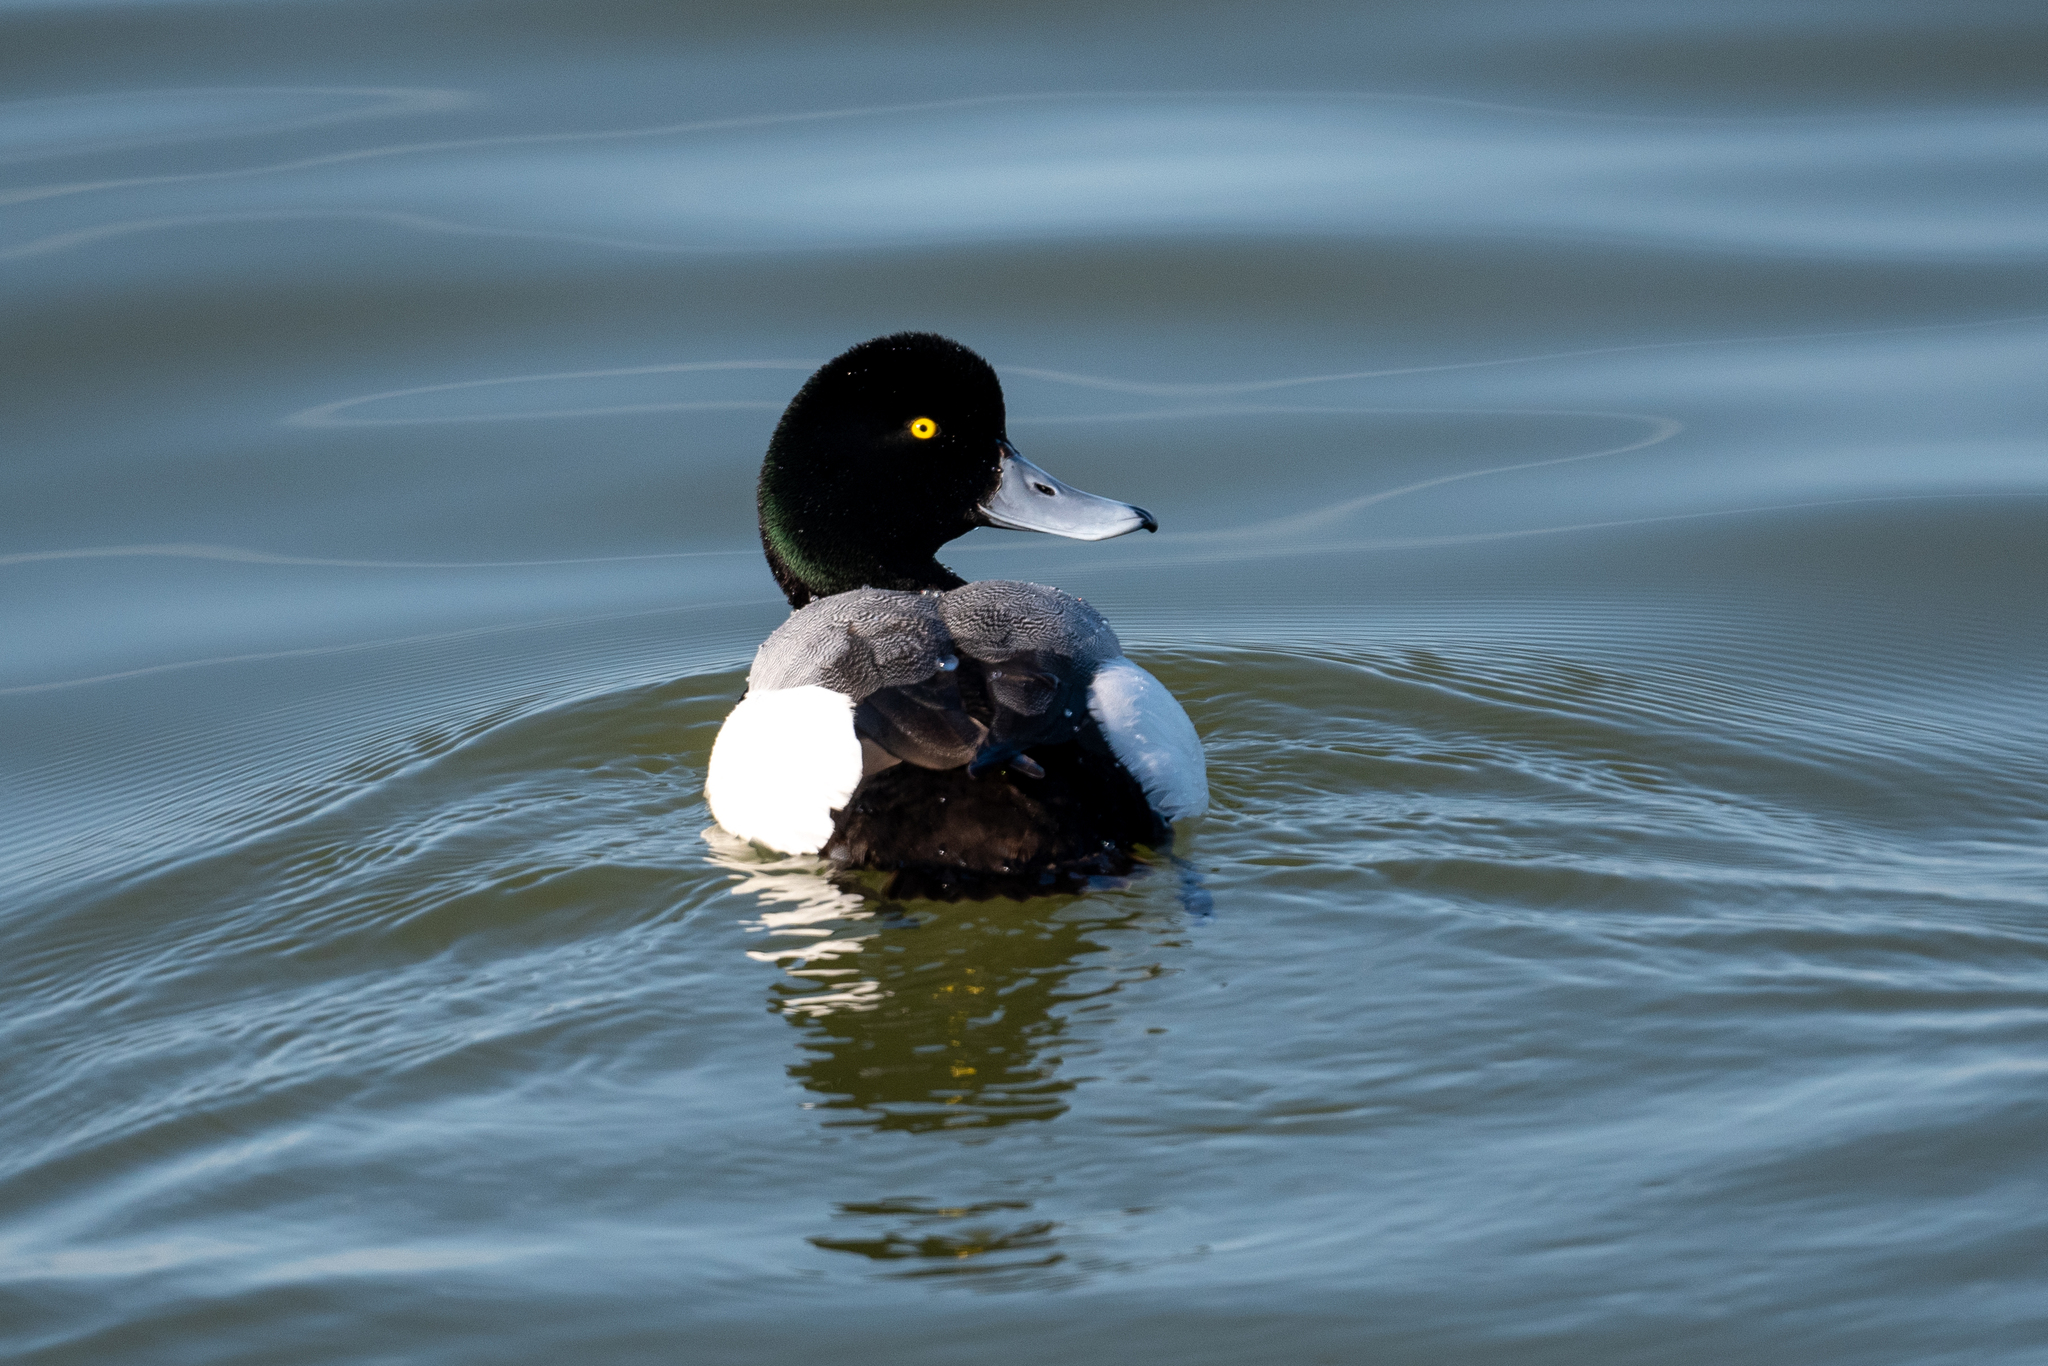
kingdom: Animalia
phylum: Chordata
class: Aves
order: Anseriformes
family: Anatidae
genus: Aythya
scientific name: Aythya marila
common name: Greater scaup
